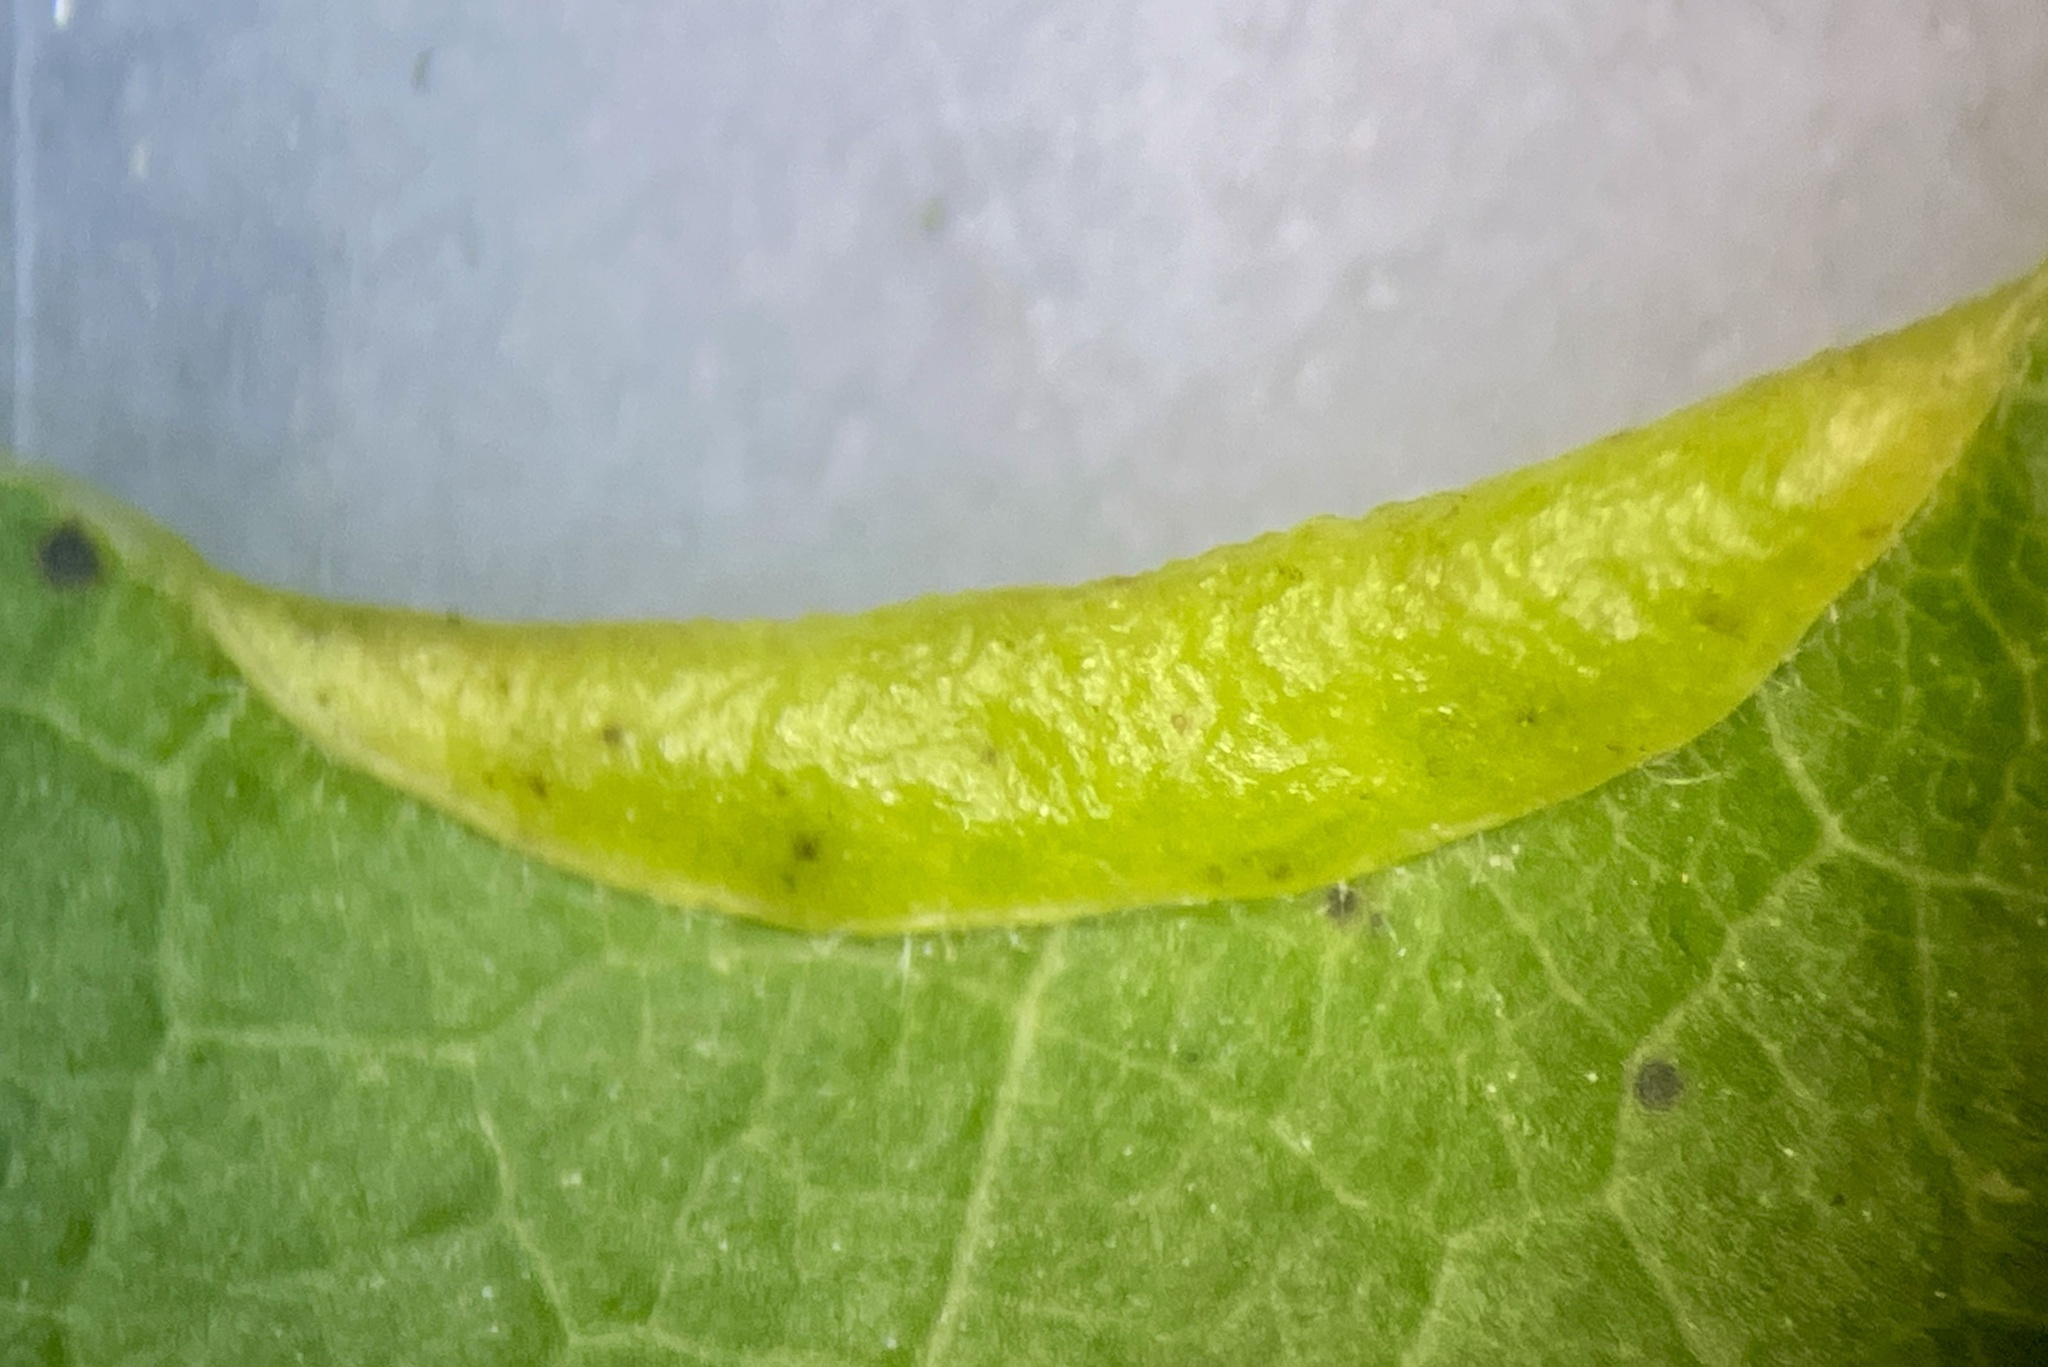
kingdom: Animalia
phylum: Arthropoda
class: Insecta
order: Diptera
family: Cecidomyiidae
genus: Macrodiplosis
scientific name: Macrodiplosis erubescens
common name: Marginal leaf fold gall midge
